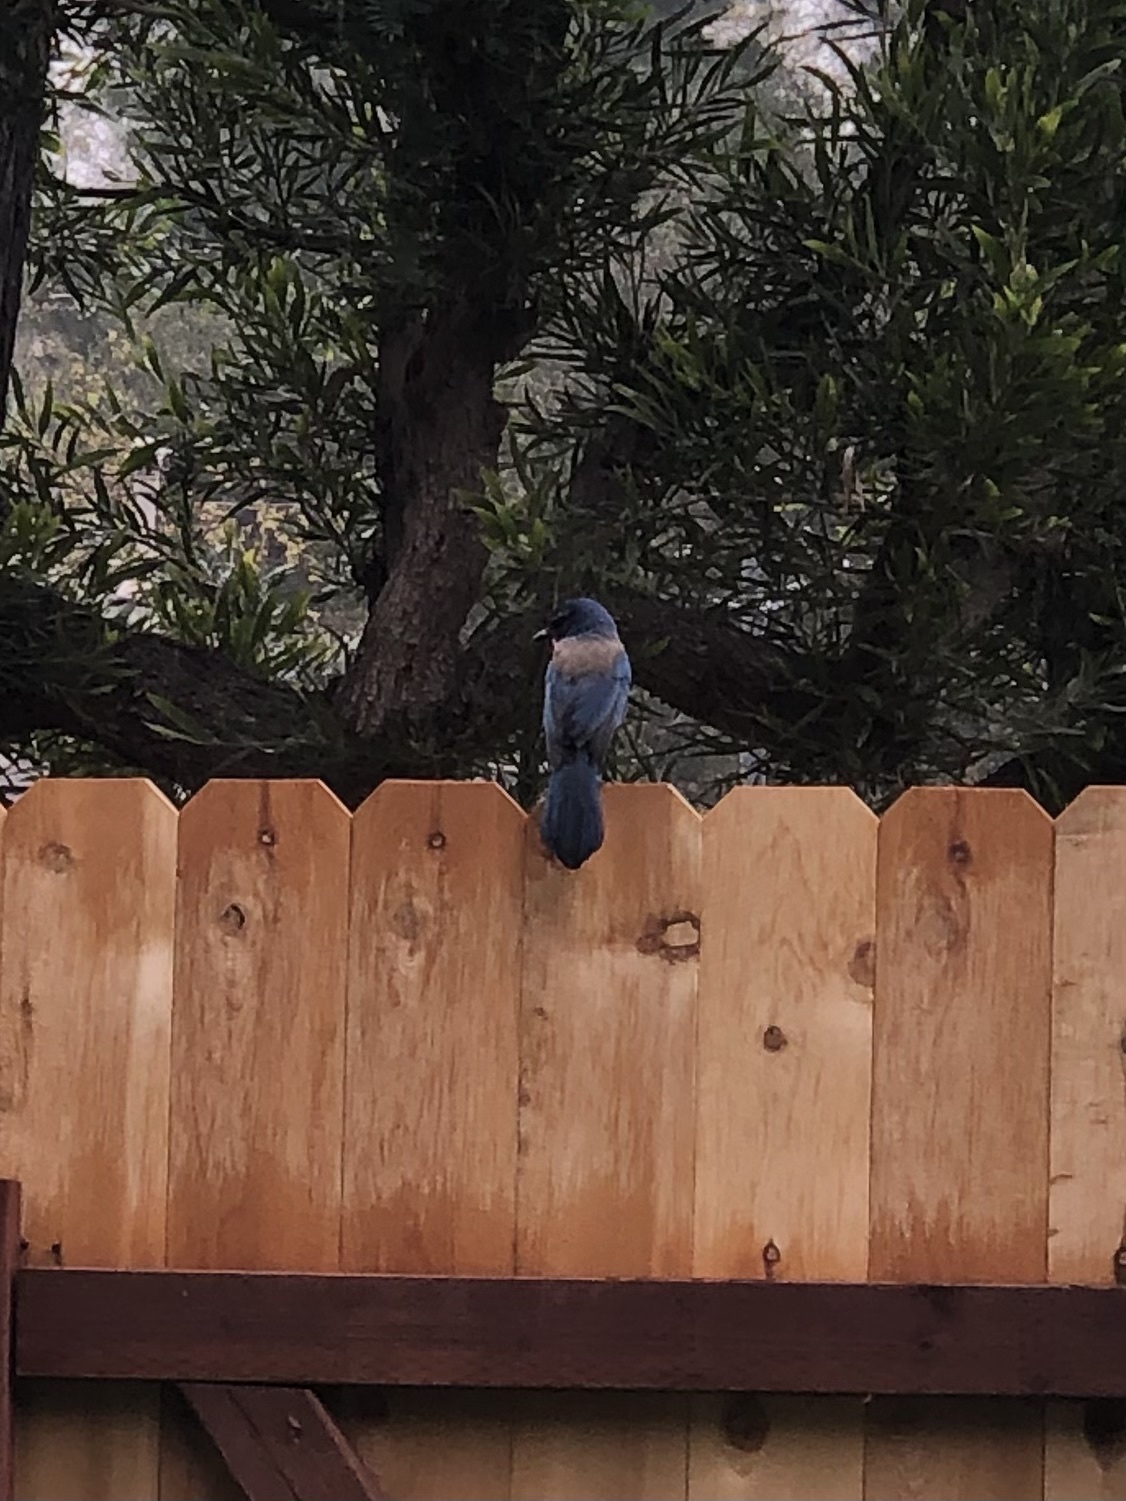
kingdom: Animalia
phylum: Chordata
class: Aves
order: Passeriformes
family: Corvidae
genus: Aphelocoma
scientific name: Aphelocoma californica
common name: California scrub-jay
